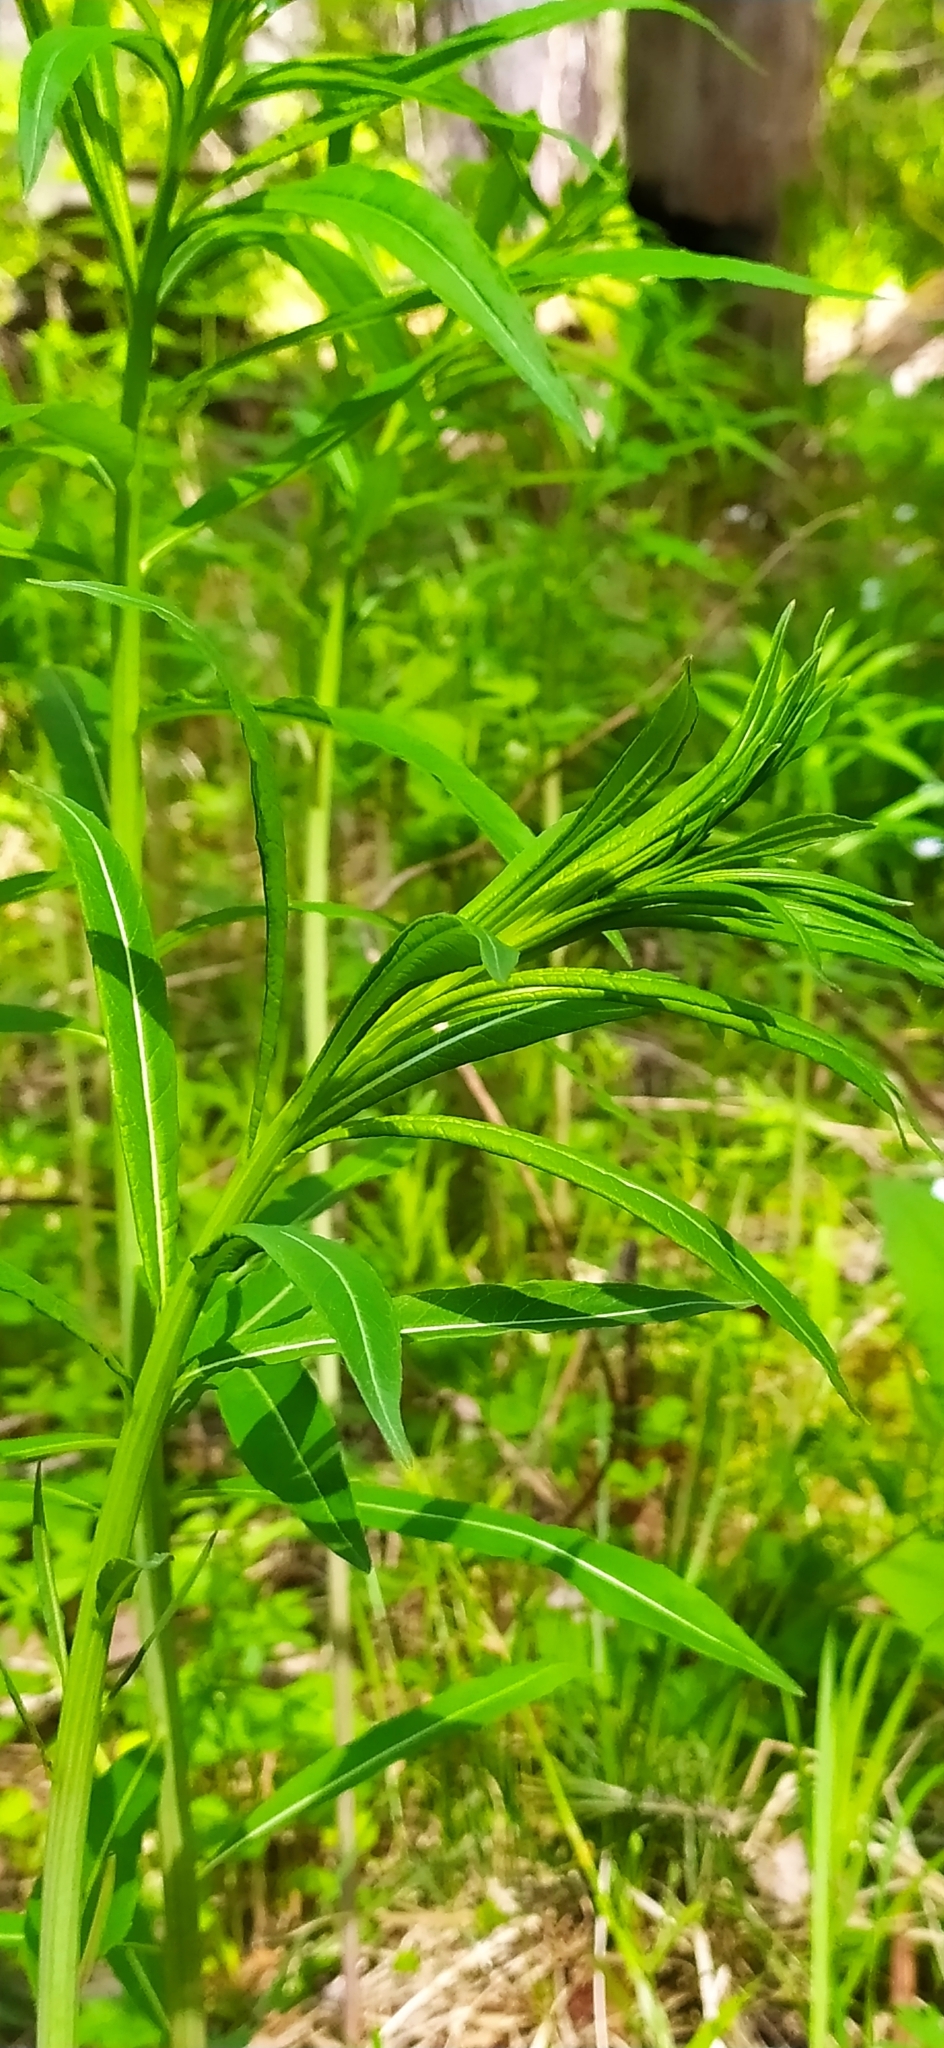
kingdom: Plantae
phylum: Tracheophyta
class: Magnoliopsida
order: Myrtales
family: Onagraceae
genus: Chamaenerion
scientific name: Chamaenerion angustifolium
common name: Fireweed
